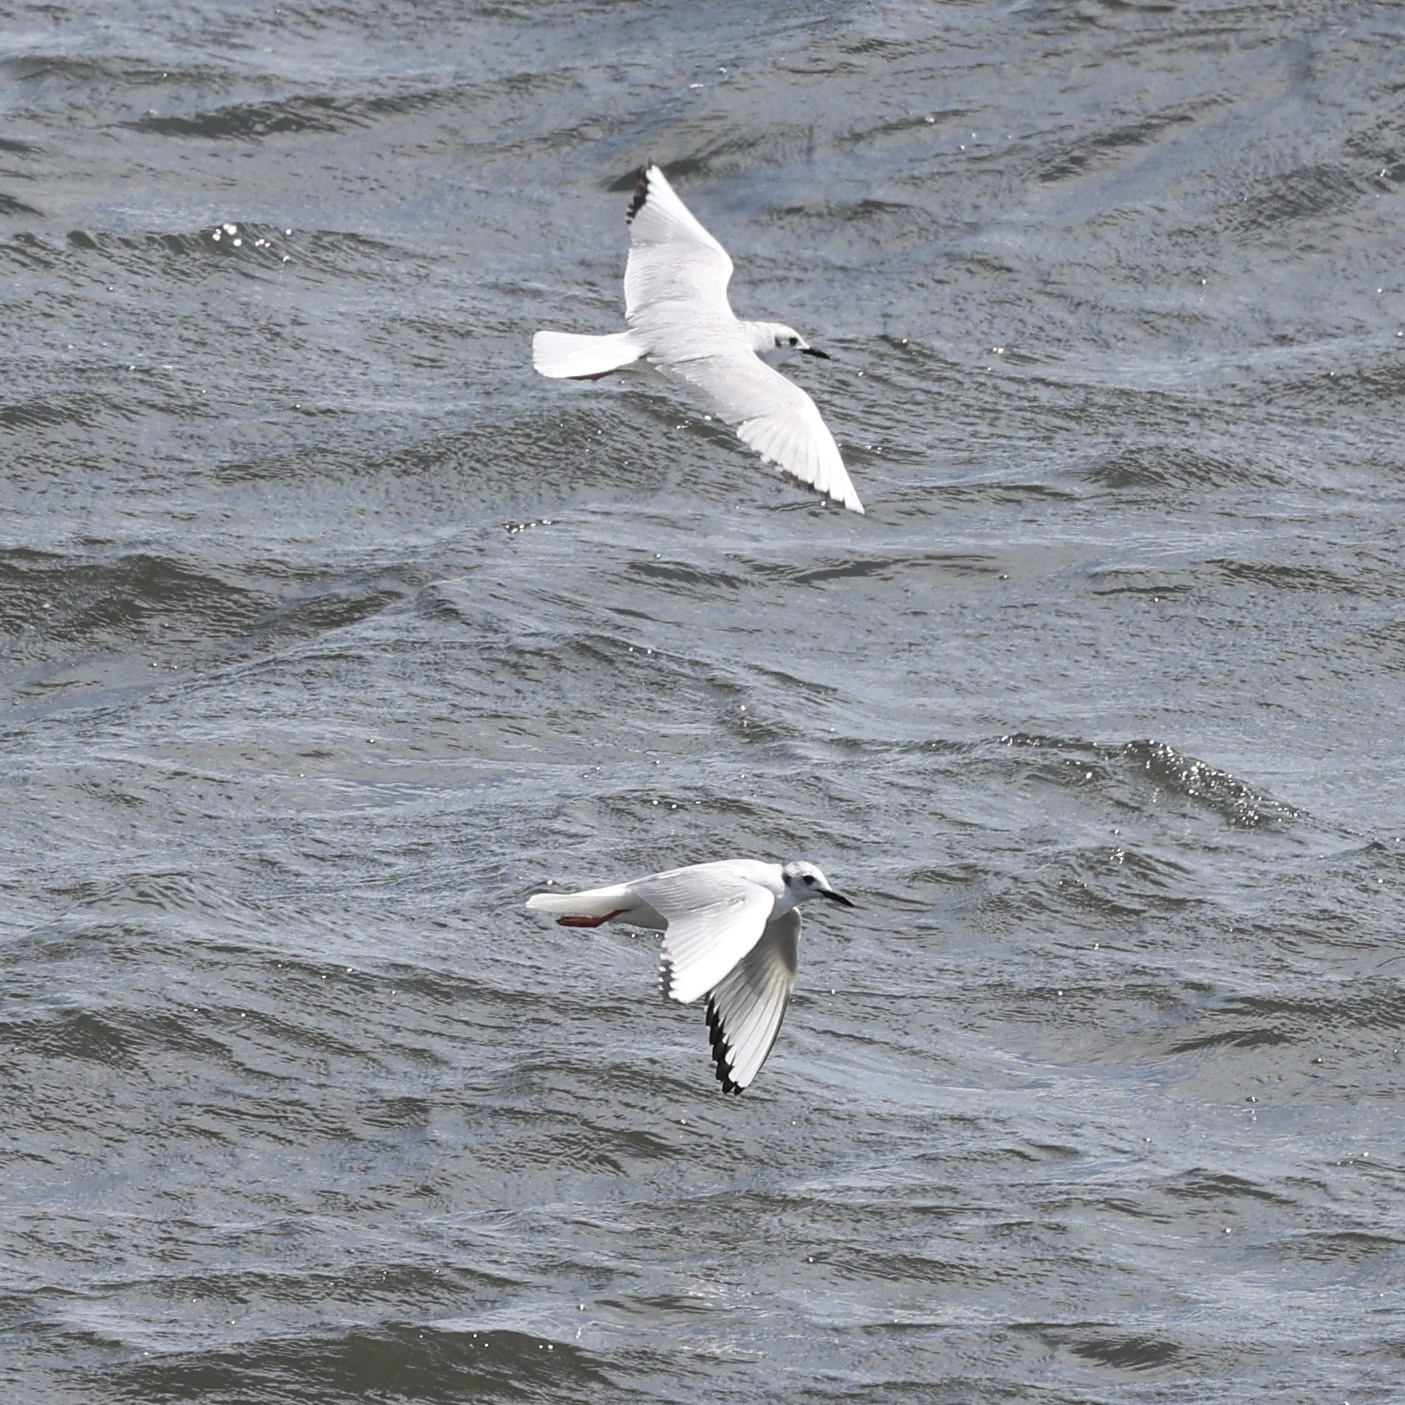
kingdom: Animalia
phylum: Chordata
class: Aves
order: Charadriiformes
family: Laridae
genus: Chroicocephalus
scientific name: Chroicocephalus philadelphia
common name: Bonaparte's gull
